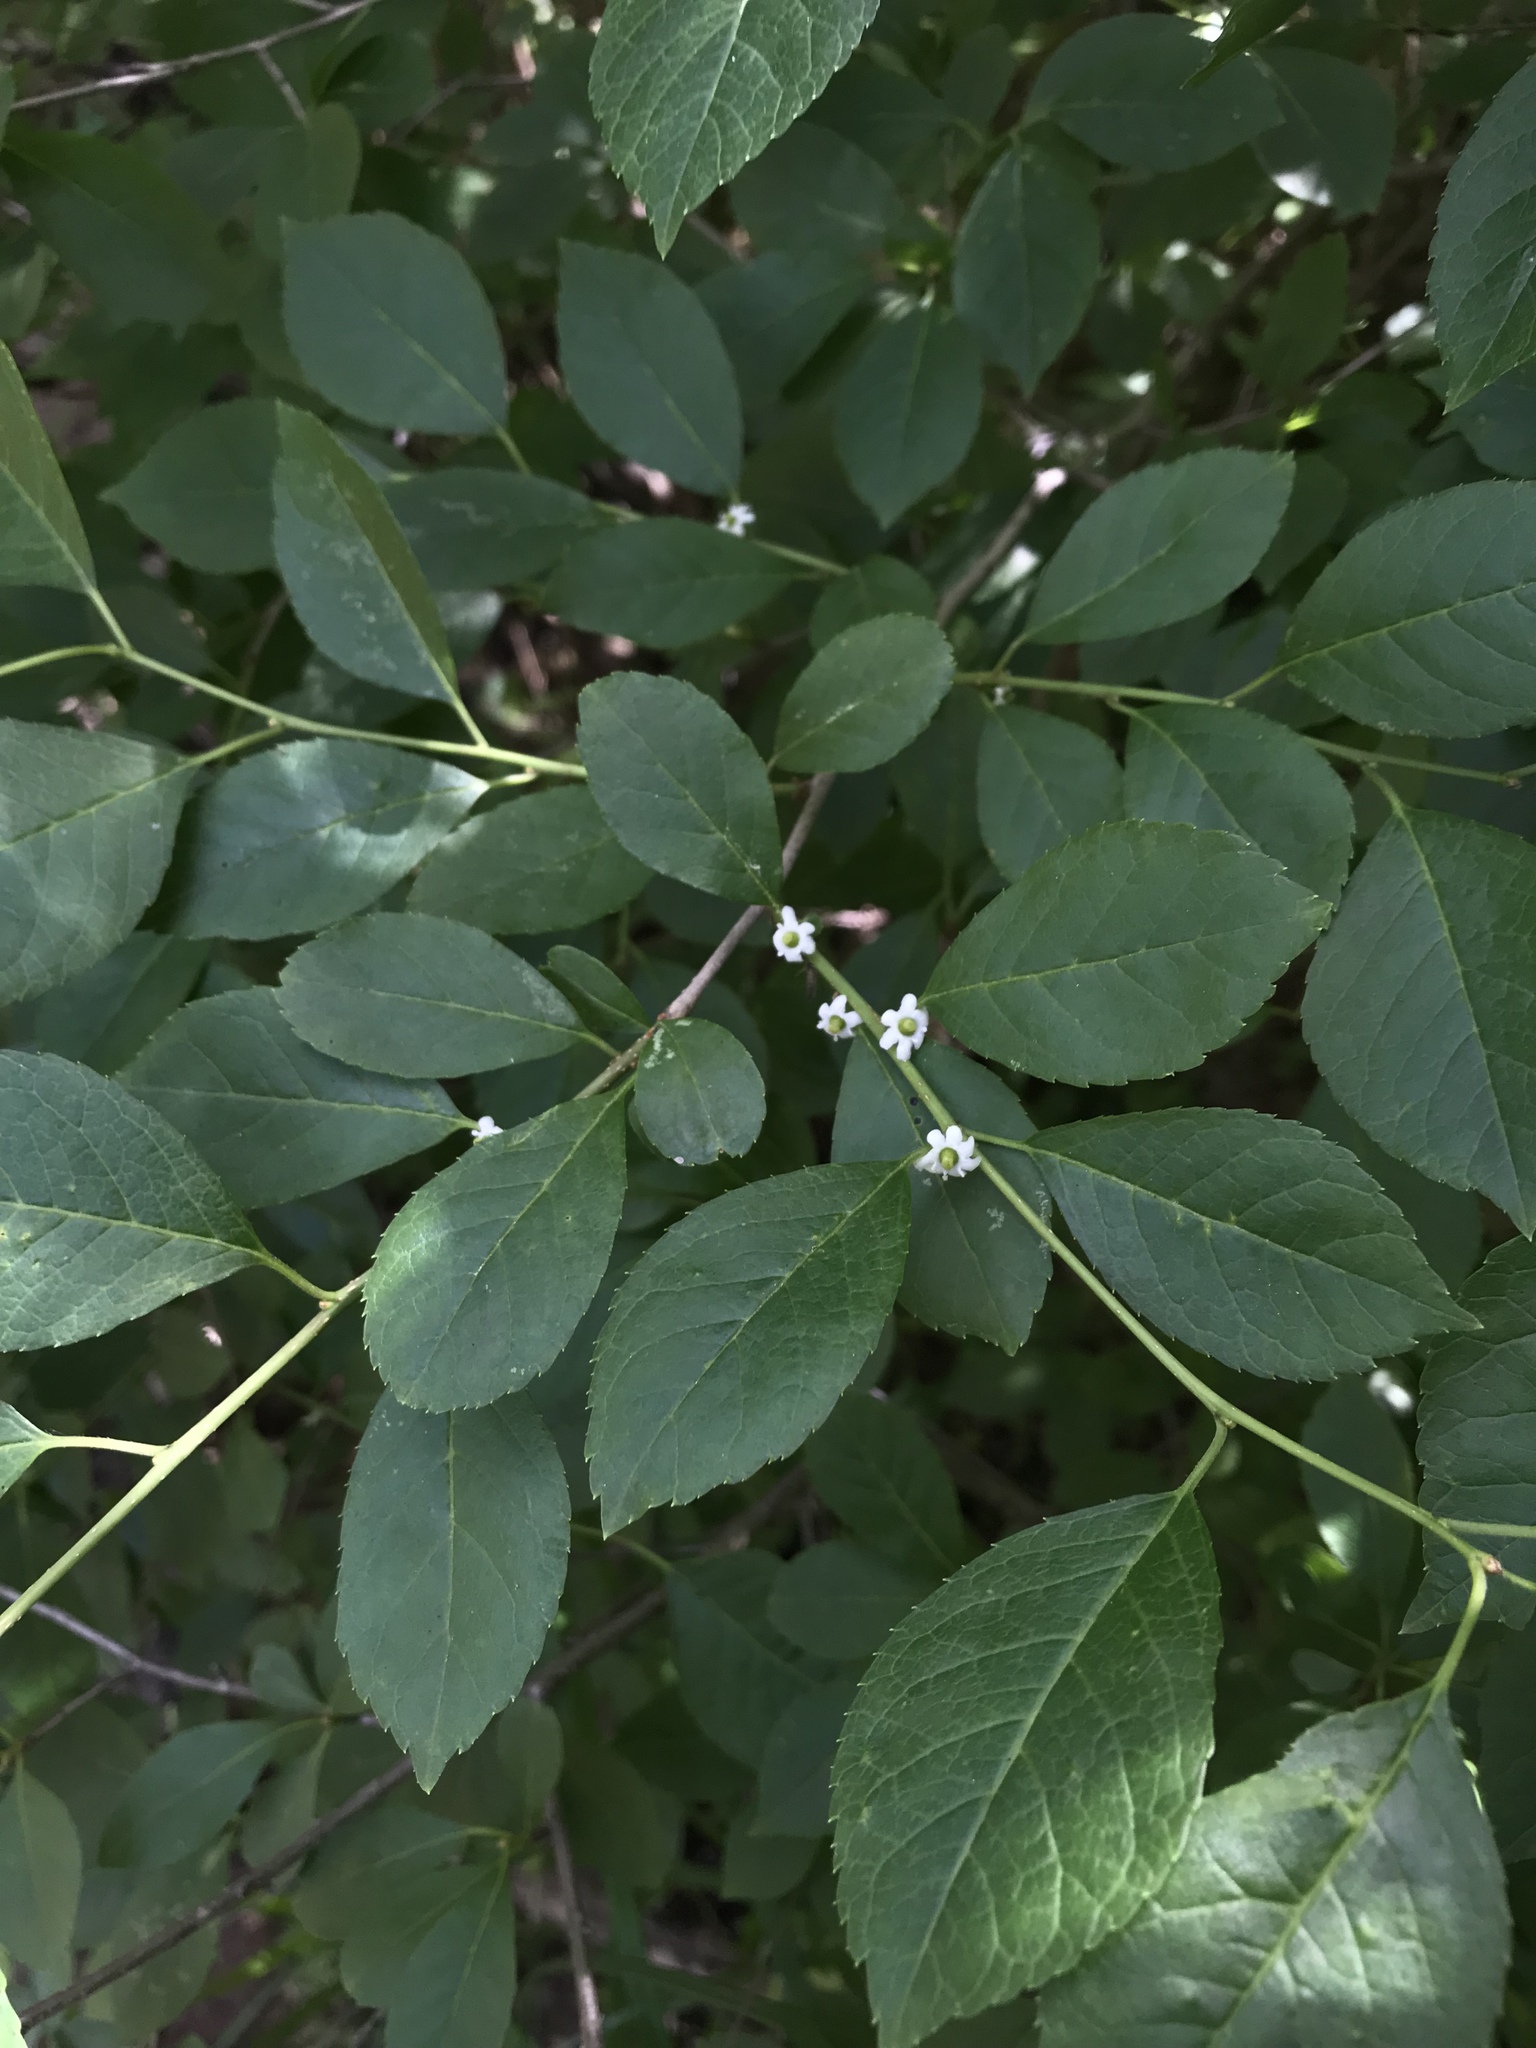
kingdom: Plantae
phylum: Tracheophyta
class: Magnoliopsida
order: Aquifoliales
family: Aquifoliaceae
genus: Ilex
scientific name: Ilex verticillata
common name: Virginia winterberry
